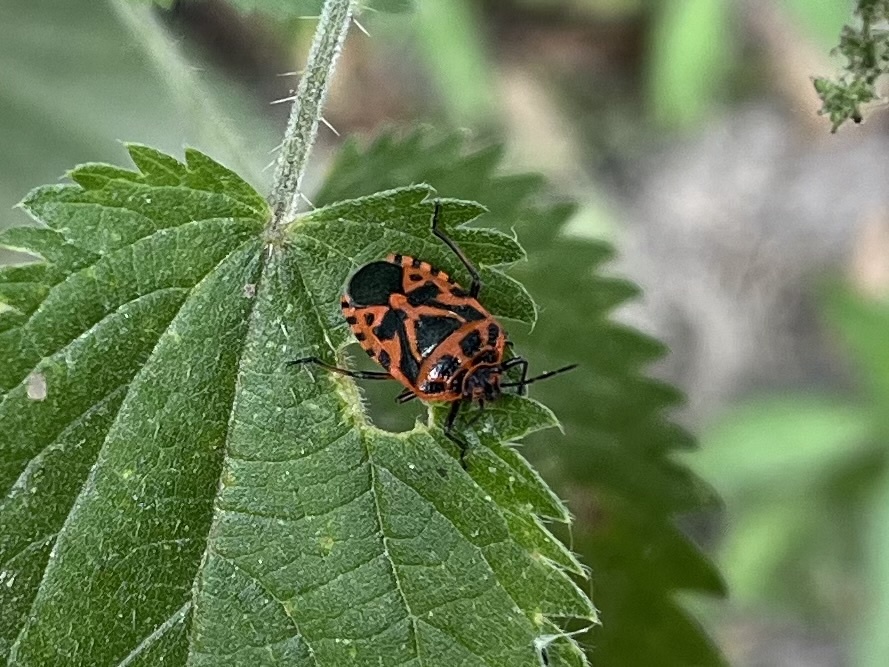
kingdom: Animalia
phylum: Arthropoda
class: Insecta
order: Hemiptera
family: Pentatomidae
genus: Eurydema
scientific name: Eurydema ventralis
